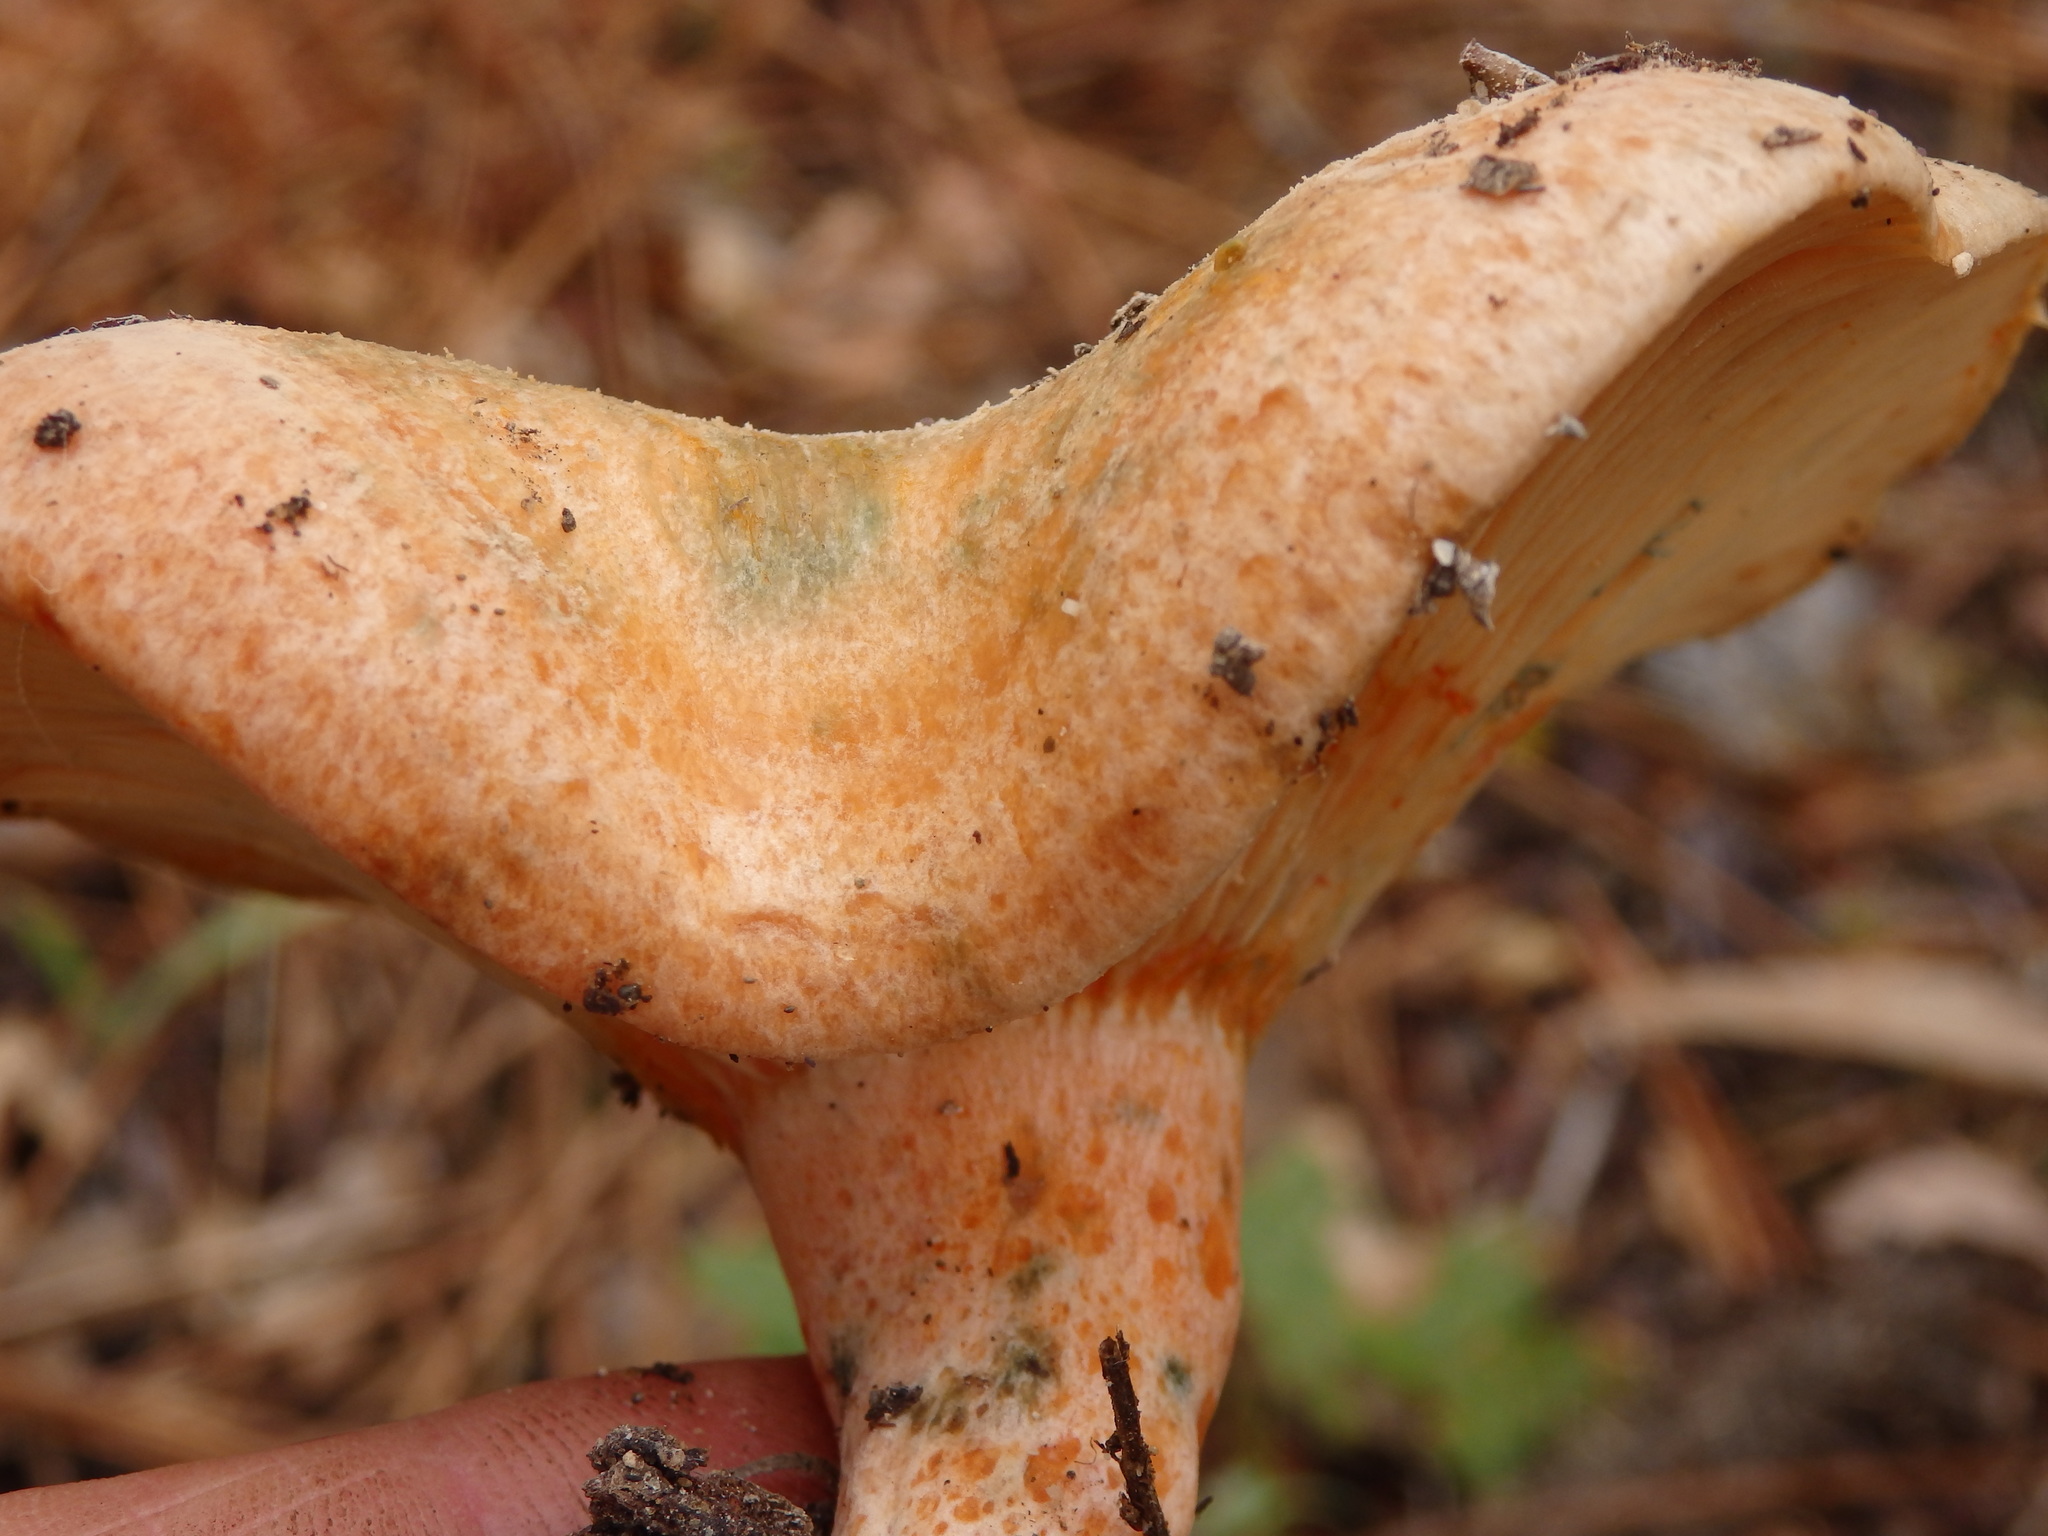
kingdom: Fungi
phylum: Basidiomycota
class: Agaricomycetes
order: Russulales
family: Russulaceae
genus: Lactarius
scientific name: Lactarius deliciosus
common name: Saffron milk-cap
